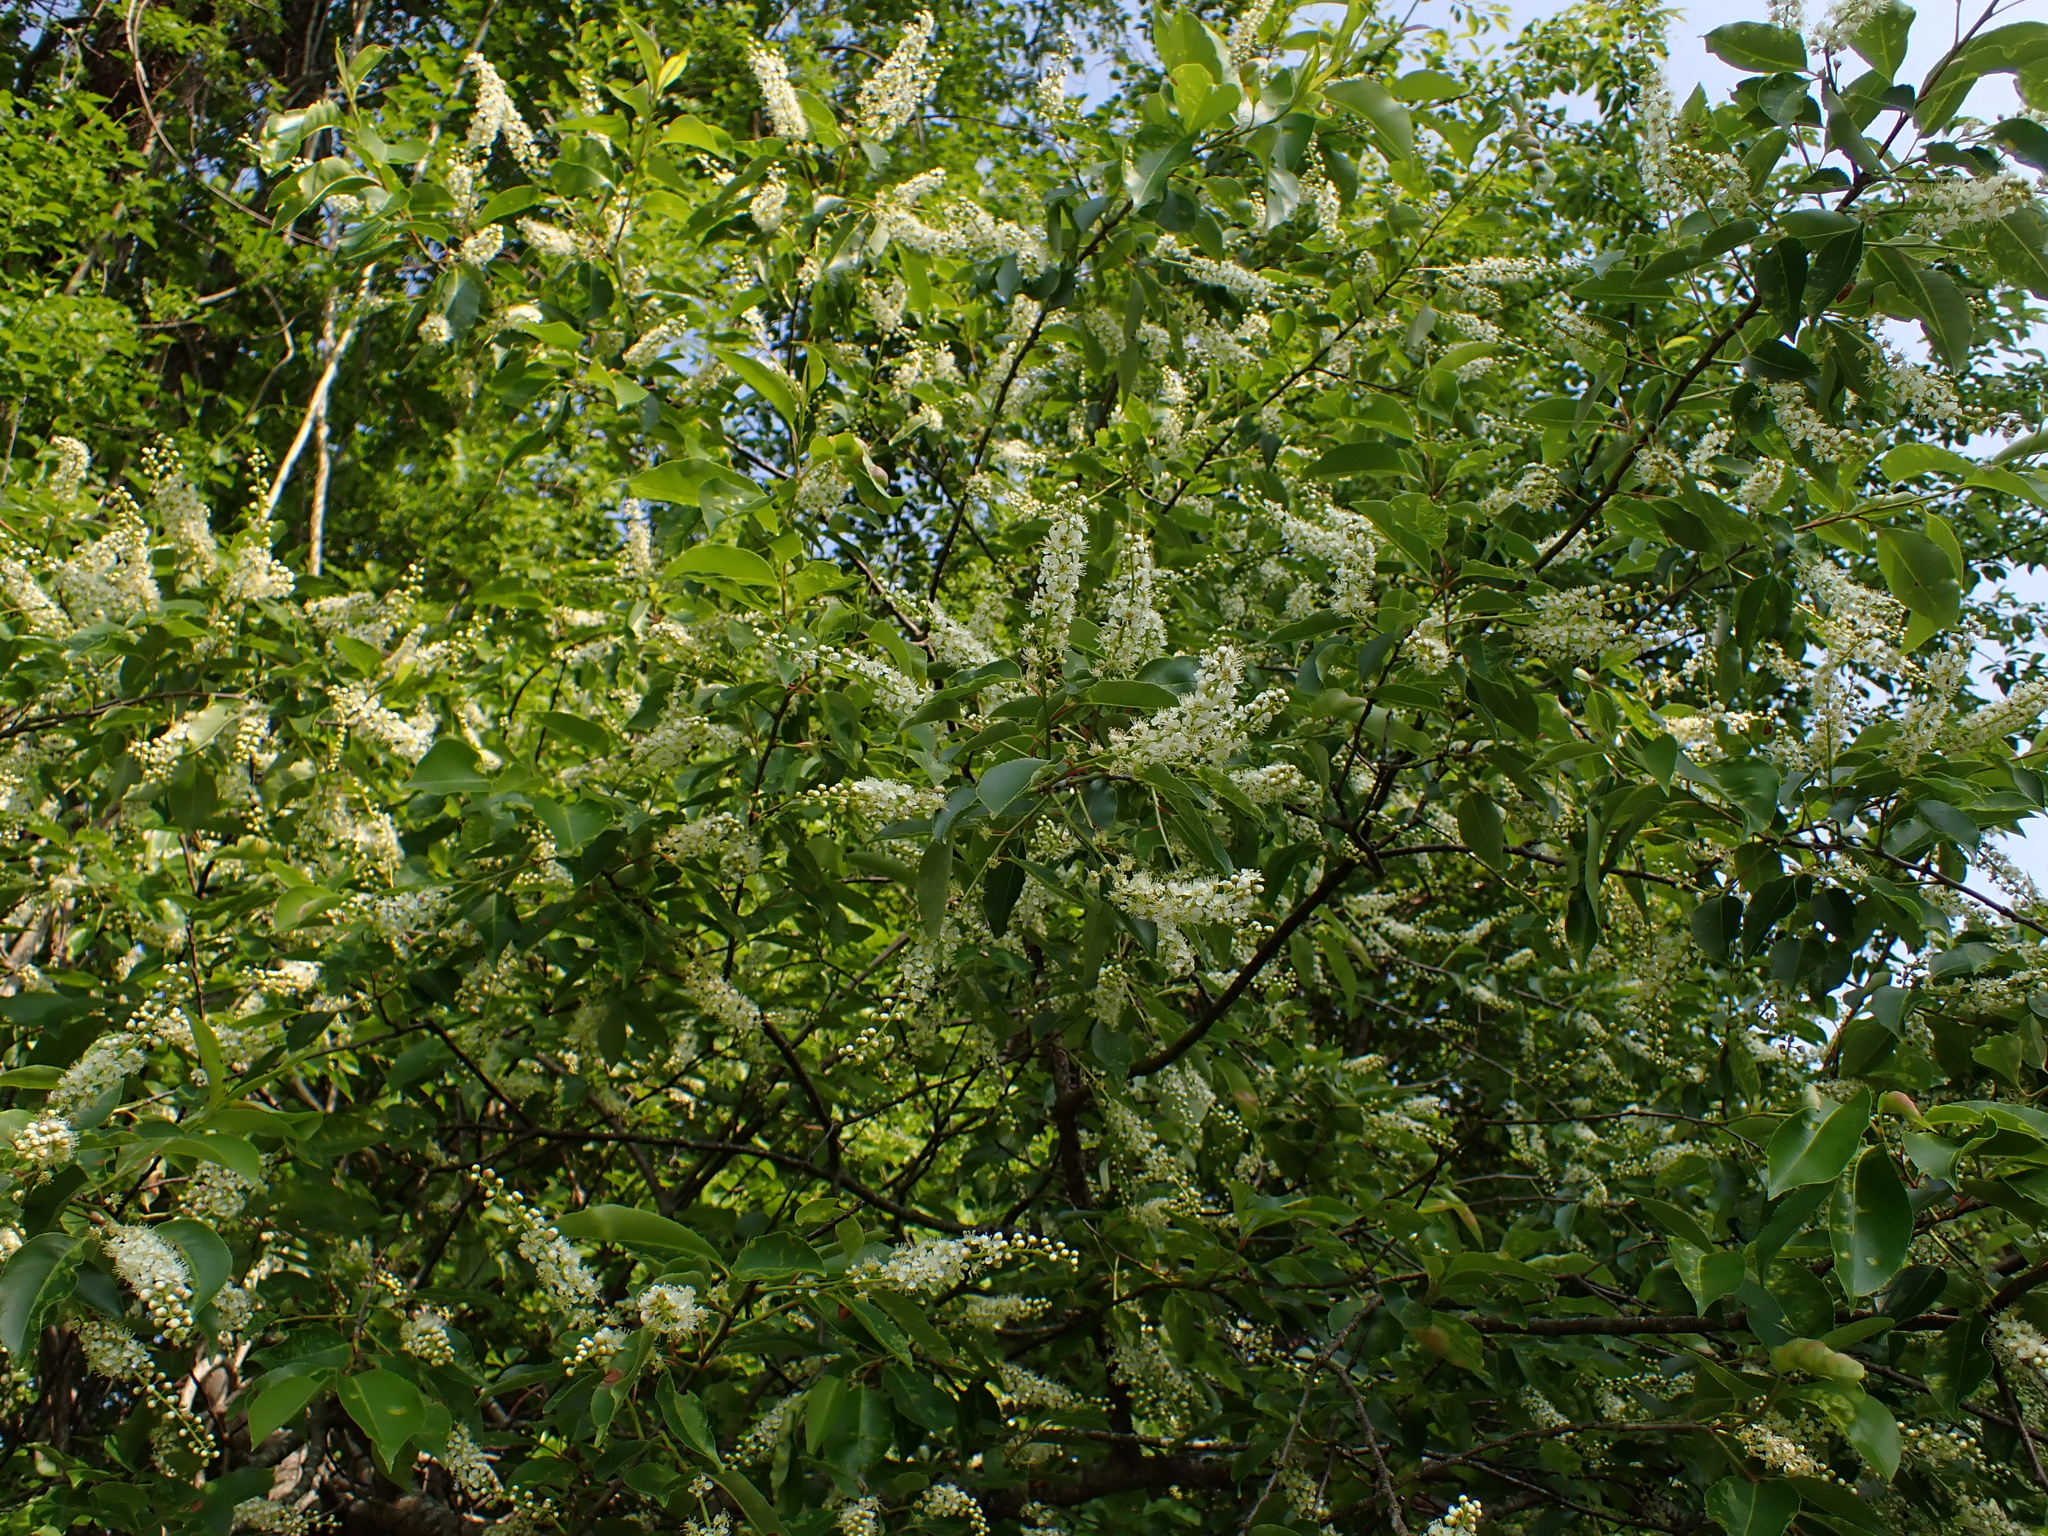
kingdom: Plantae
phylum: Tracheophyta
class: Magnoliopsida
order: Rosales
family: Rosaceae
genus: Prunus
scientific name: Prunus serotina
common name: Black cherry
